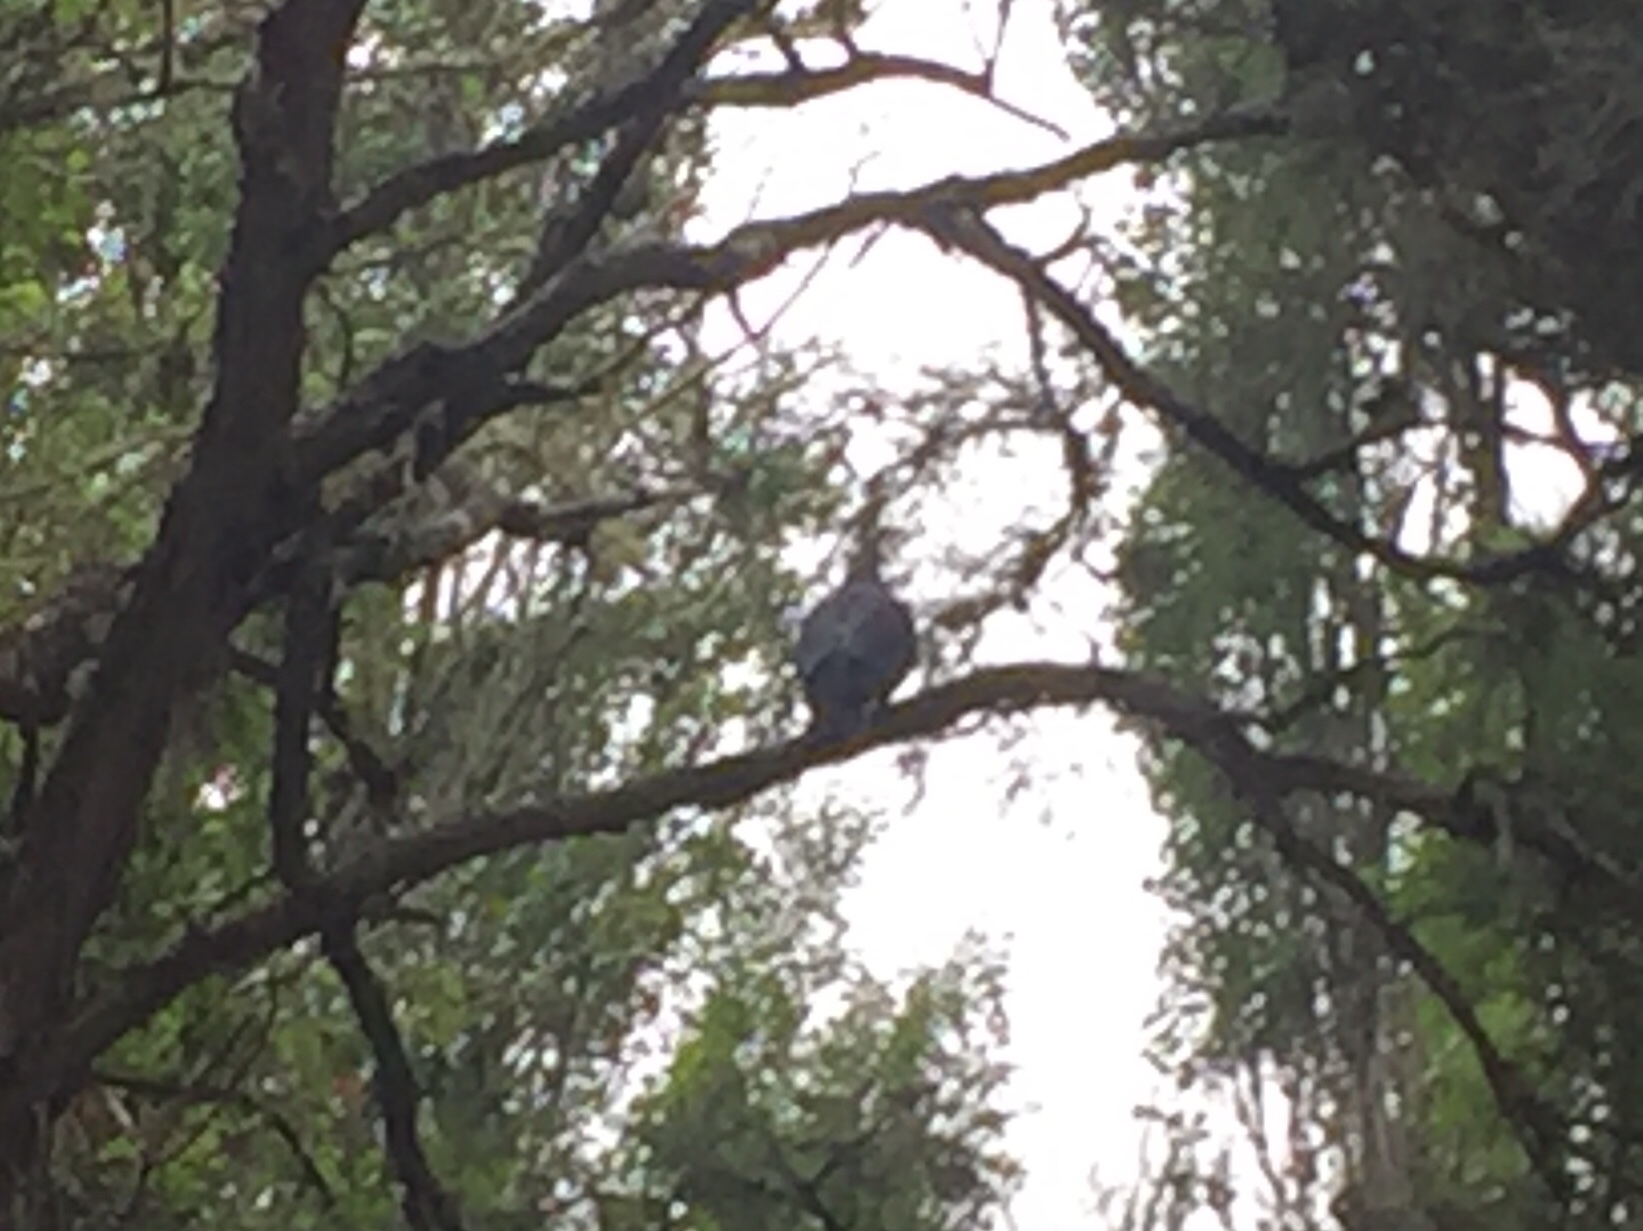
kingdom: Animalia
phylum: Chordata
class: Aves
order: Columbiformes
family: Columbidae
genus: Hemiphaga
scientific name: Hemiphaga novaeseelandiae
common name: New zealand pigeon
